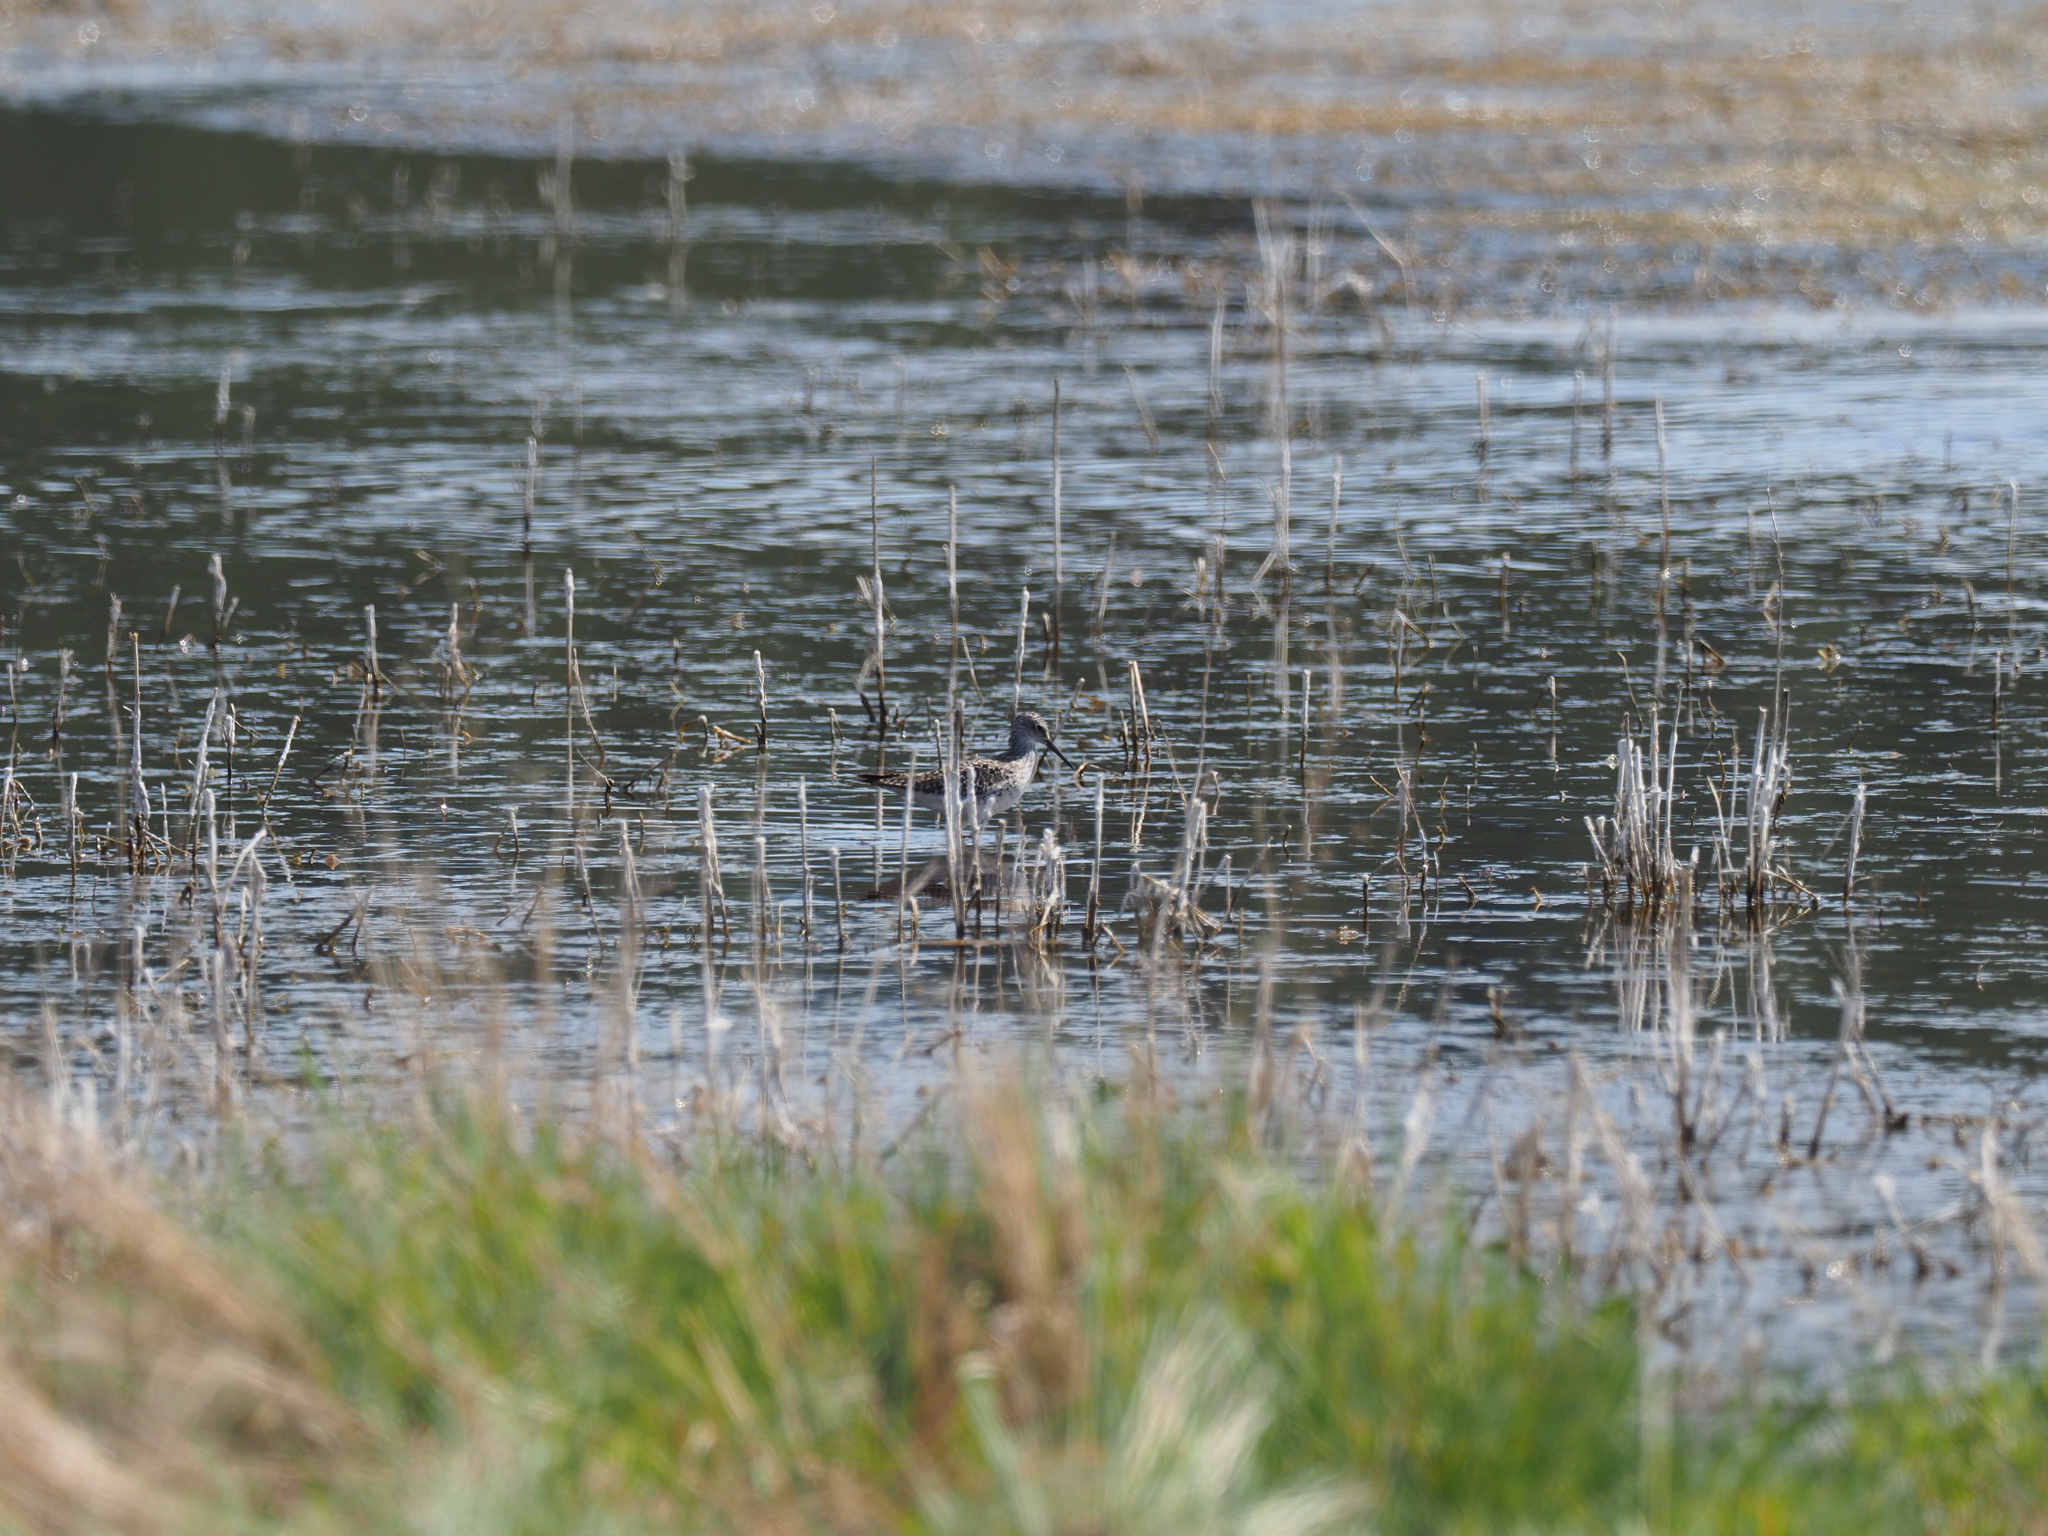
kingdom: Animalia
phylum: Chordata
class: Aves
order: Charadriiformes
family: Scolopacidae
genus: Tringa
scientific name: Tringa flavipes
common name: Lesser yellowlegs
